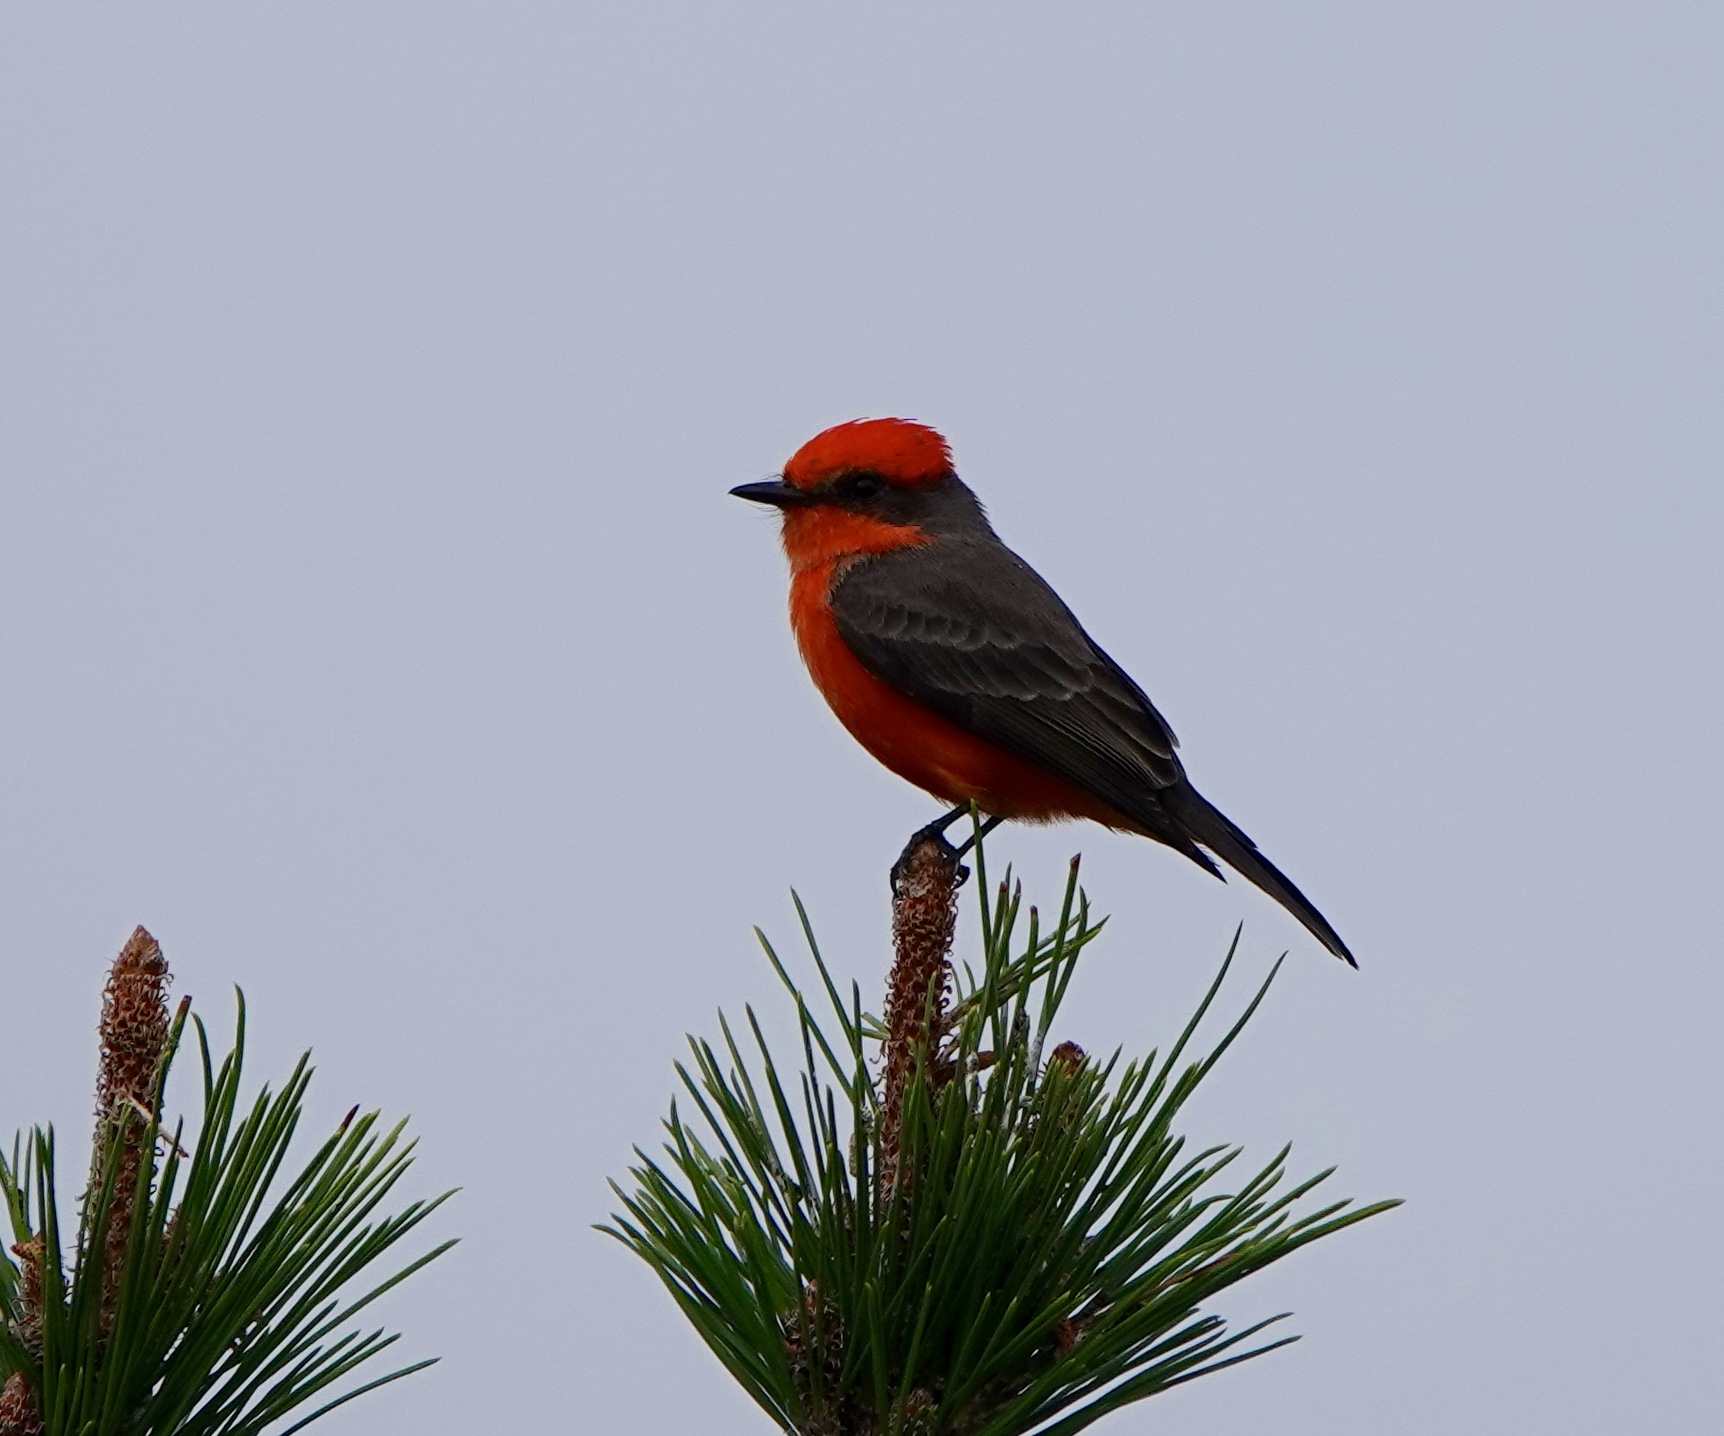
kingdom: Animalia
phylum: Chordata
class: Aves
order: Passeriformes
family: Tyrannidae
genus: Pyrocephalus
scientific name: Pyrocephalus rubinus
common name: Vermilion flycatcher
